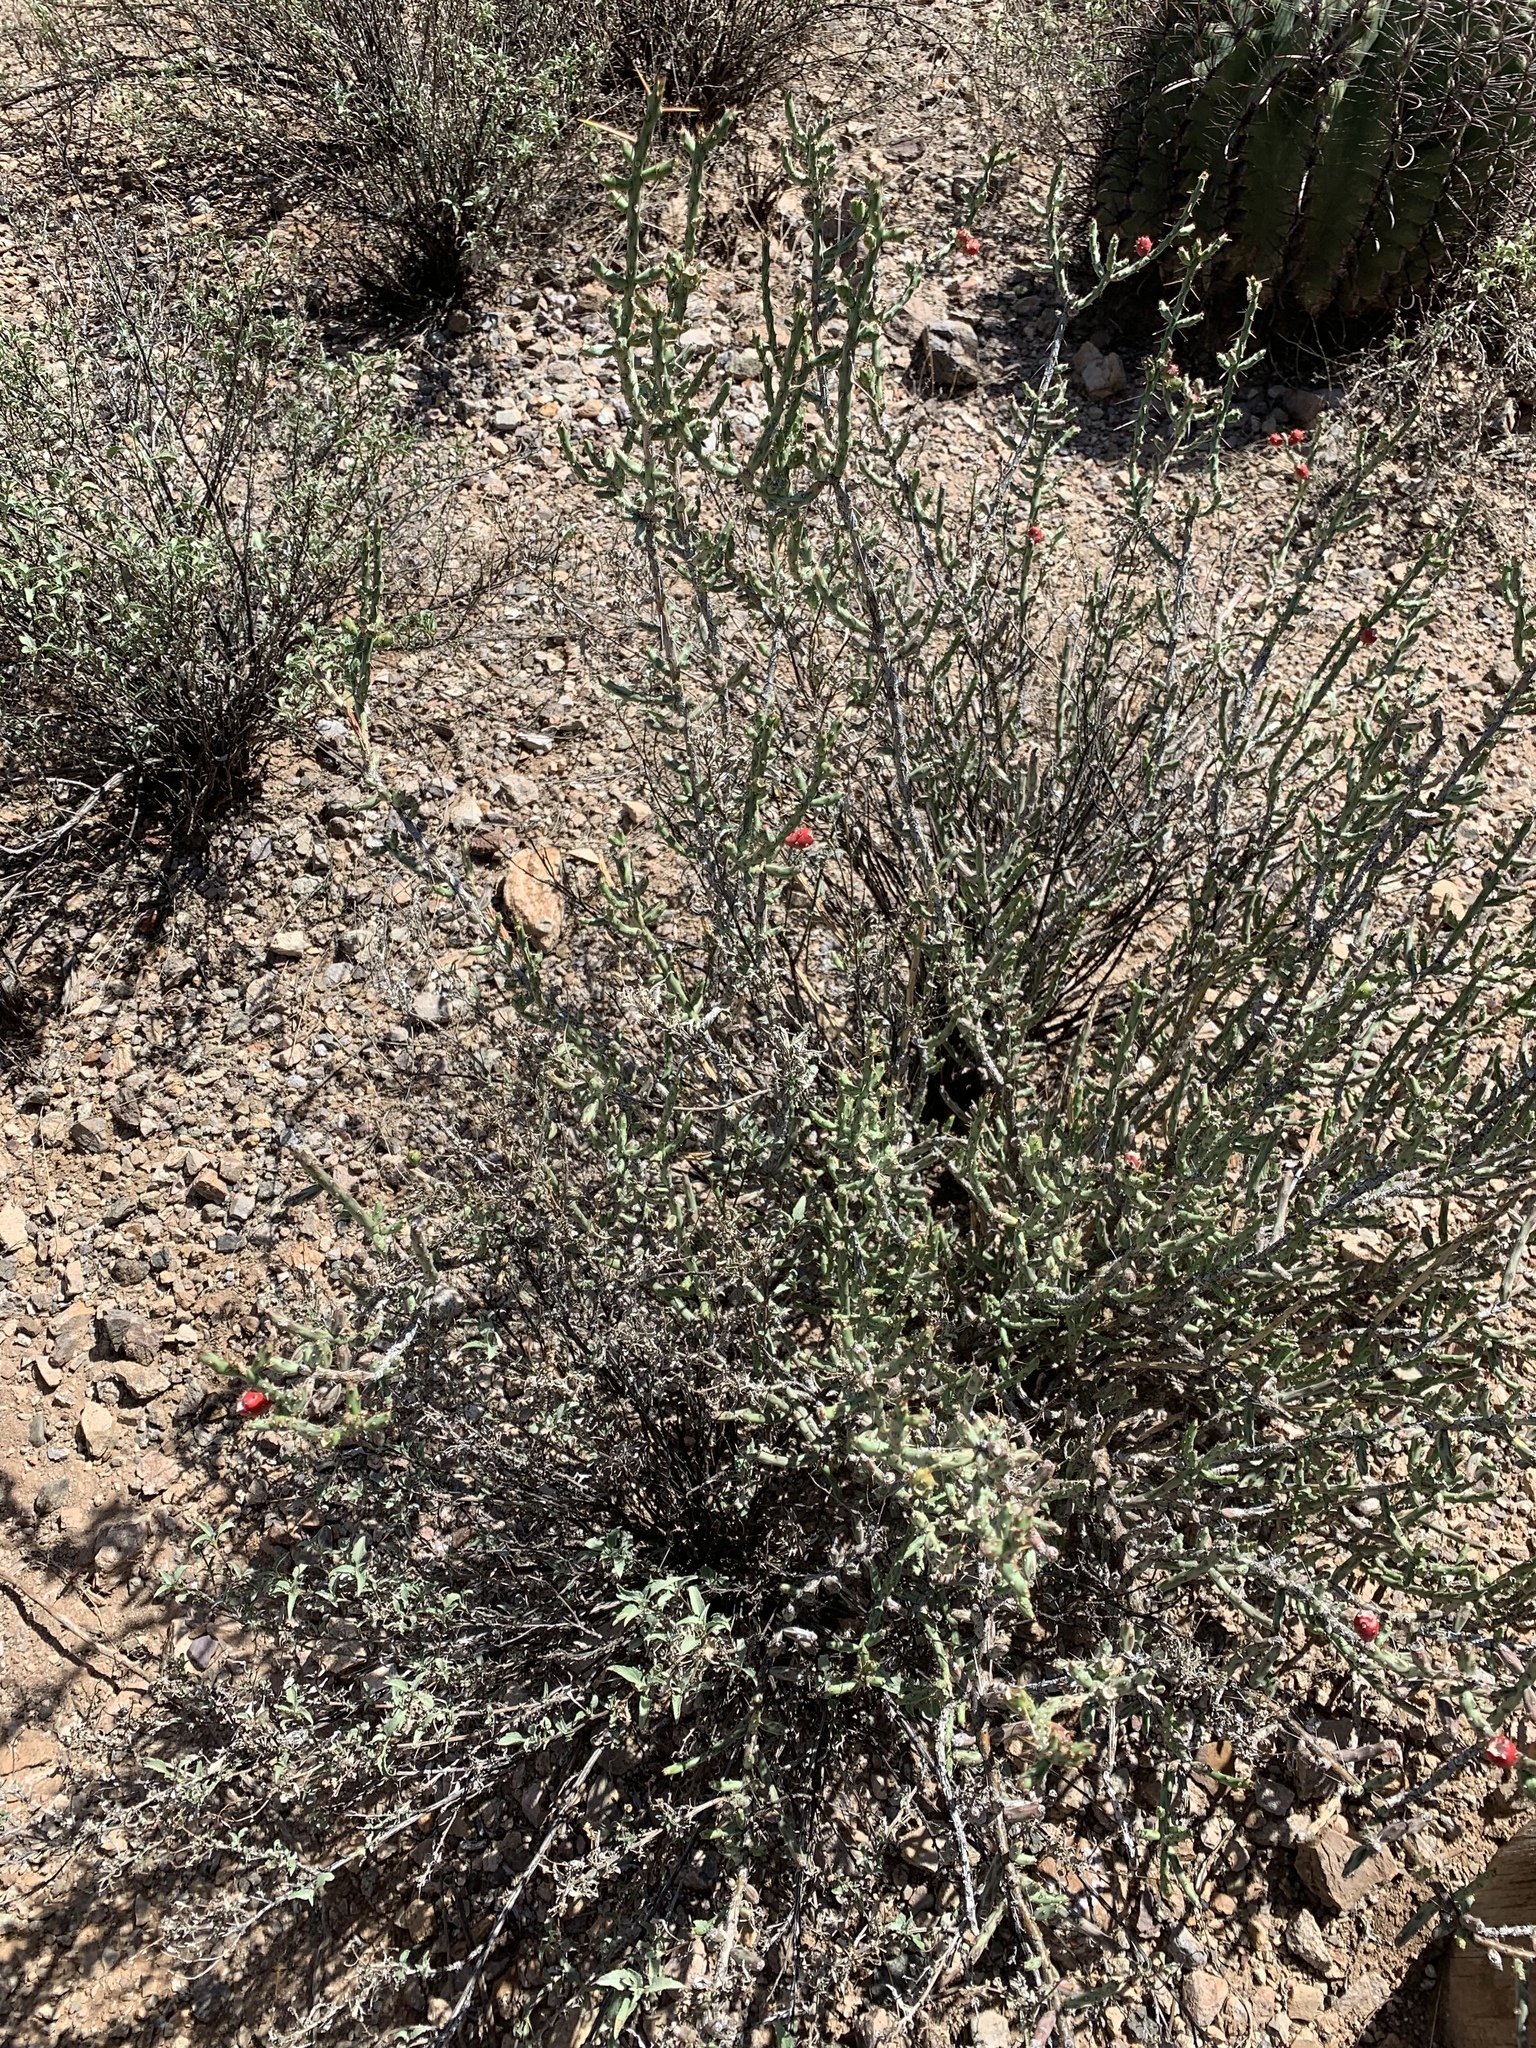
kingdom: Plantae
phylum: Tracheophyta
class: Magnoliopsida
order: Caryophyllales
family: Cactaceae
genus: Cylindropuntia
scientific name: Cylindropuntia leptocaulis
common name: Christmas cactus
